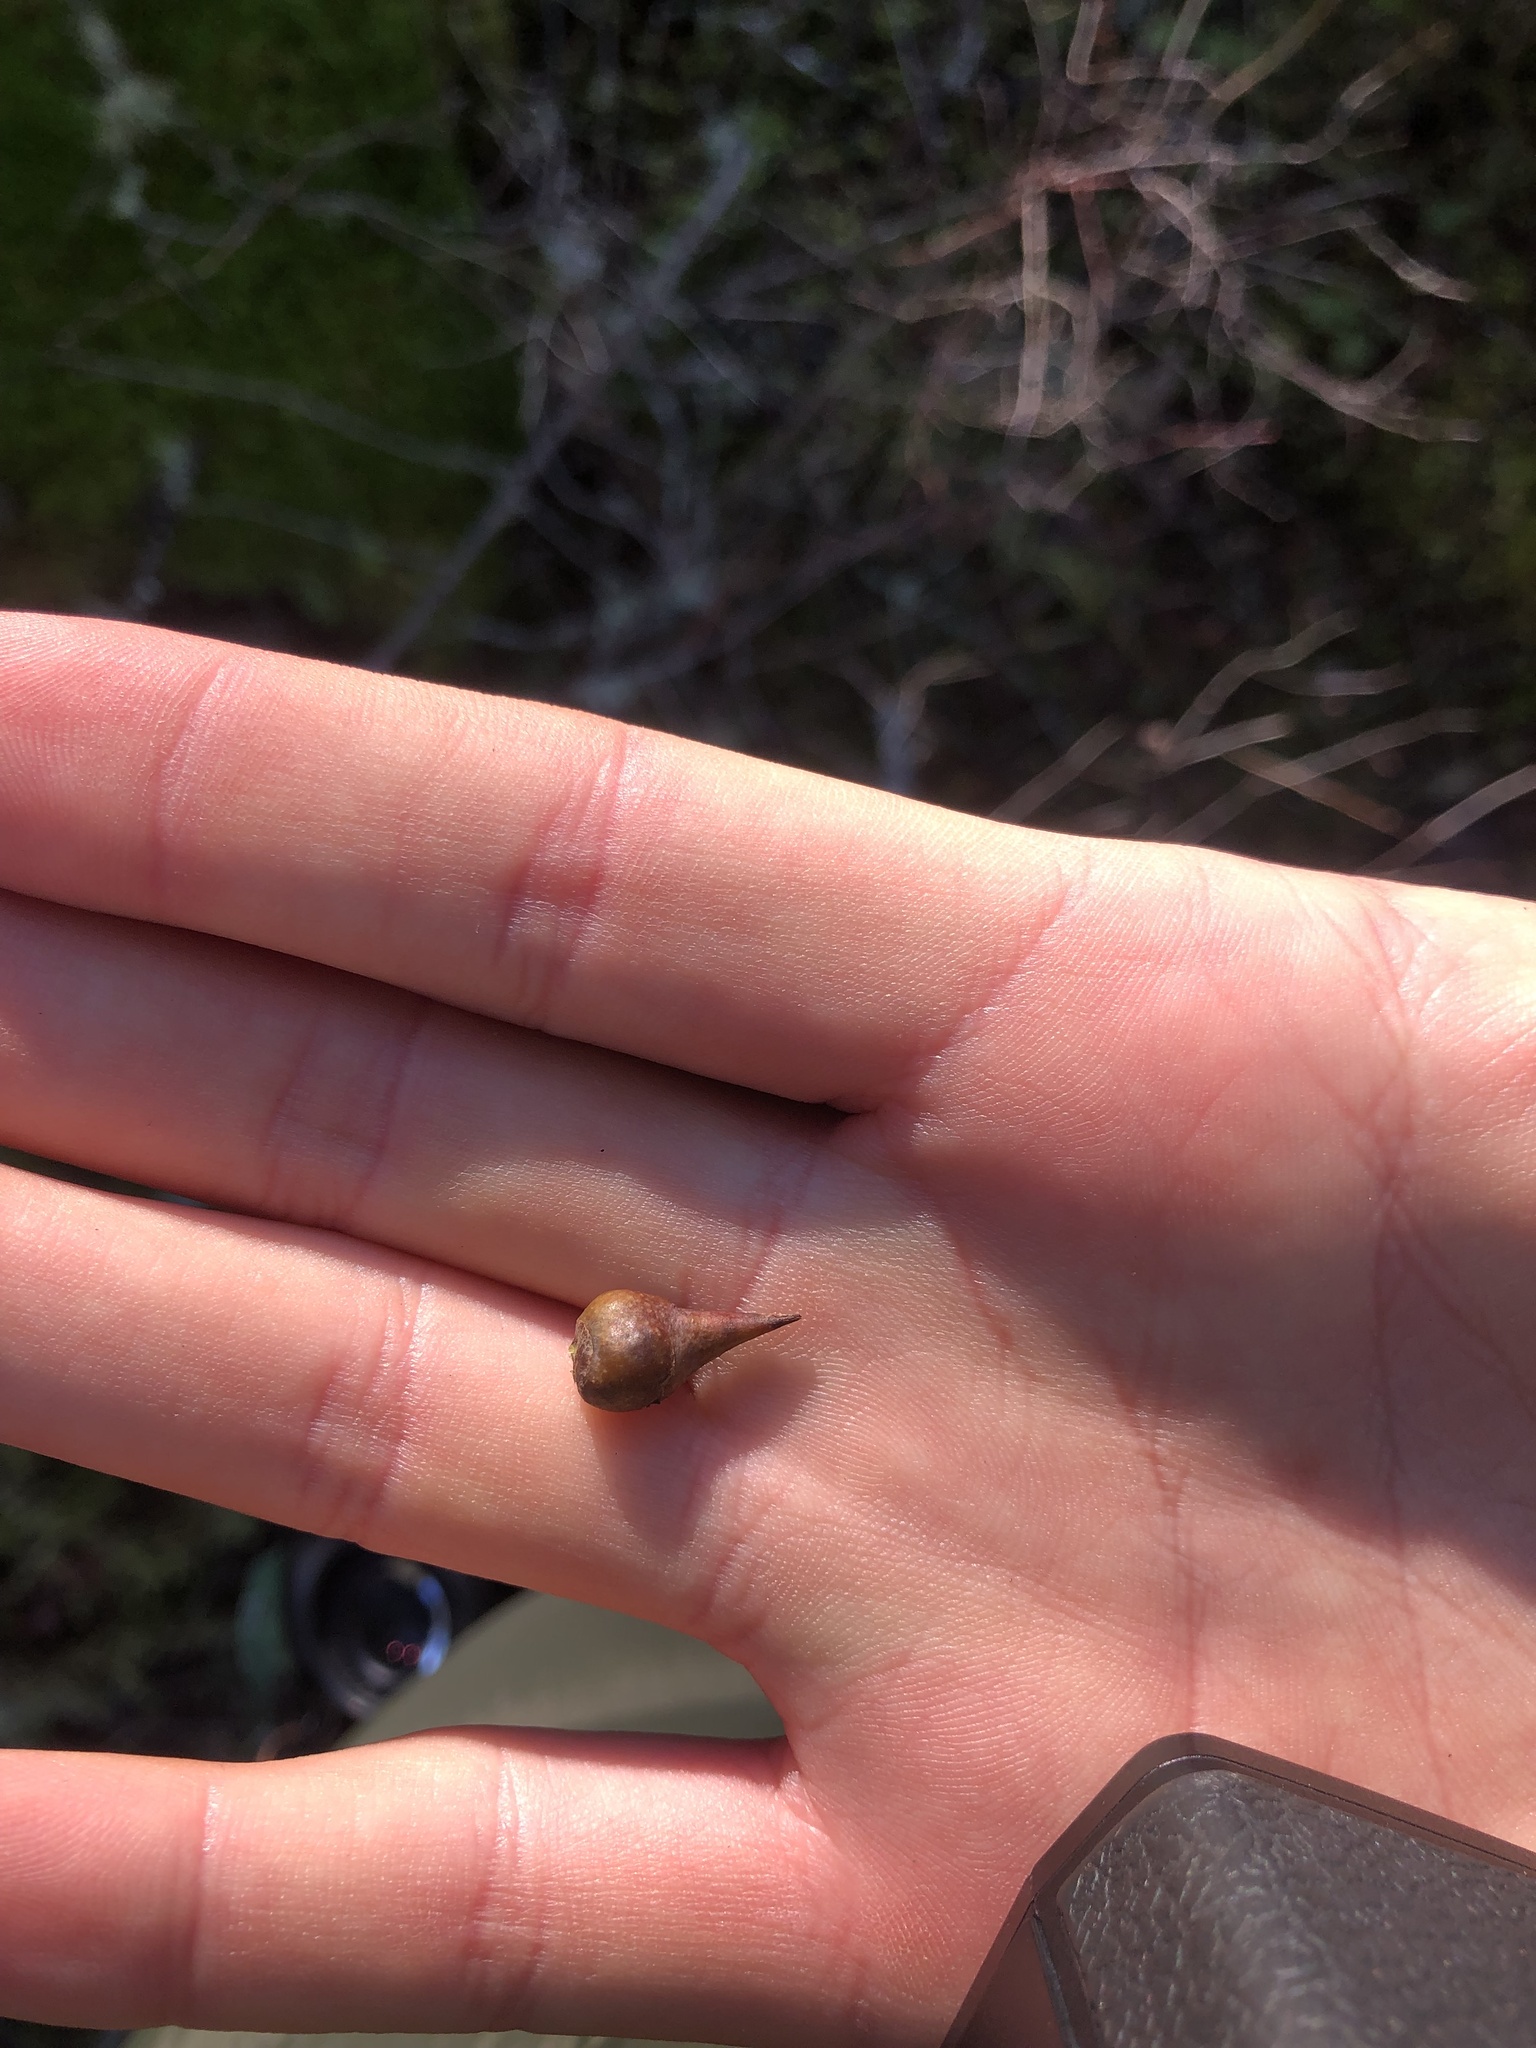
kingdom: Animalia
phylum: Arthropoda
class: Insecta
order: Hymenoptera
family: Cynipidae
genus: Diplolepis
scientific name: Diplolepis
